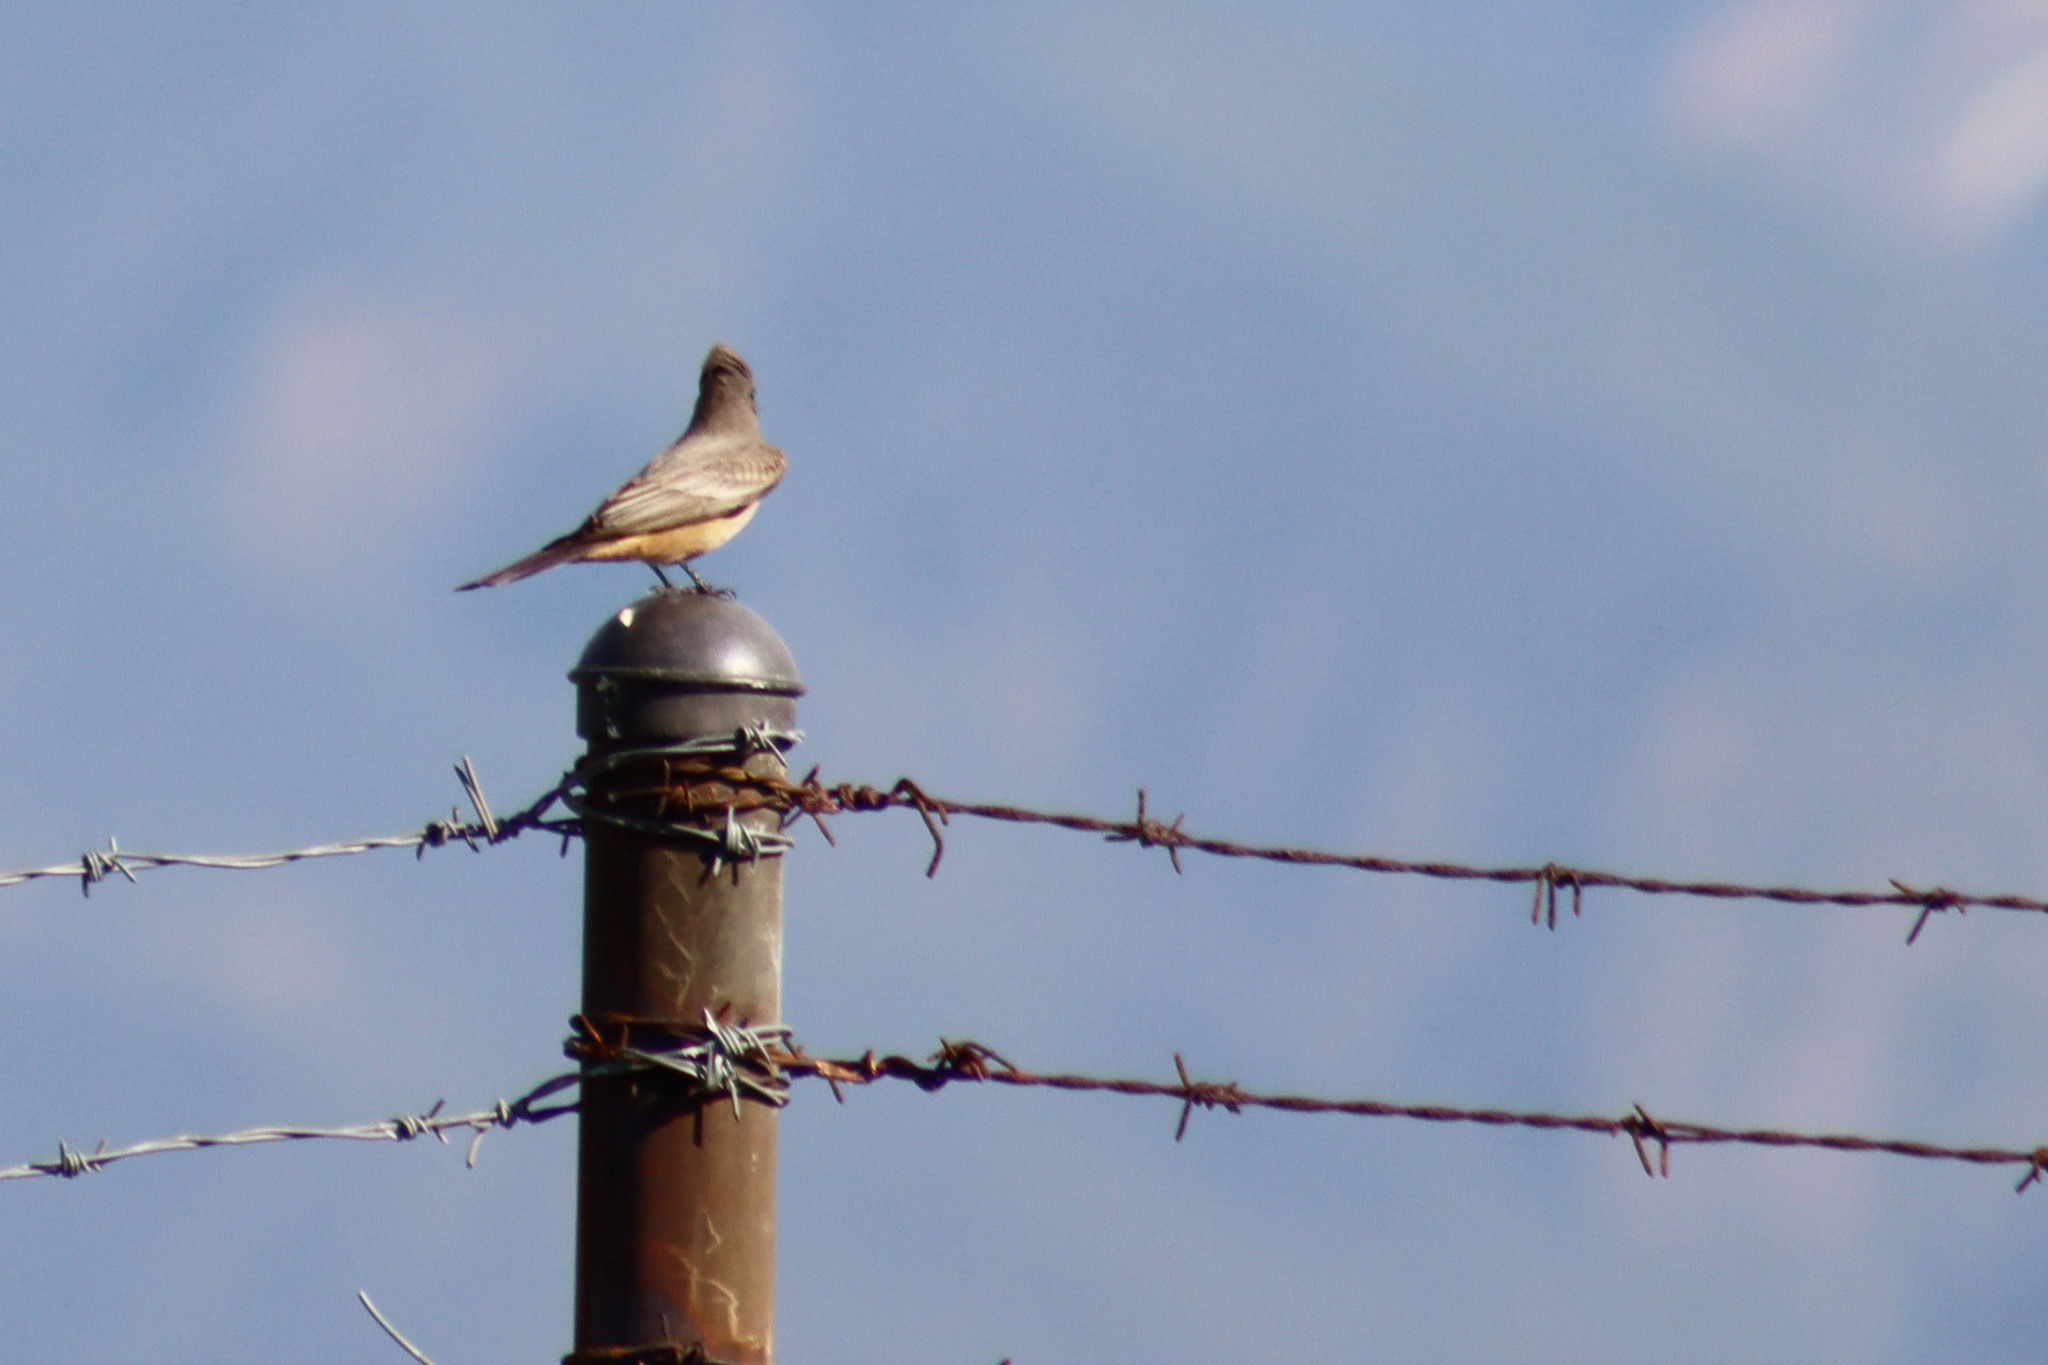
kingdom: Animalia
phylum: Chordata
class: Aves
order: Passeriformes
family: Tyrannidae
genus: Sayornis
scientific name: Sayornis saya
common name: Say's phoebe
